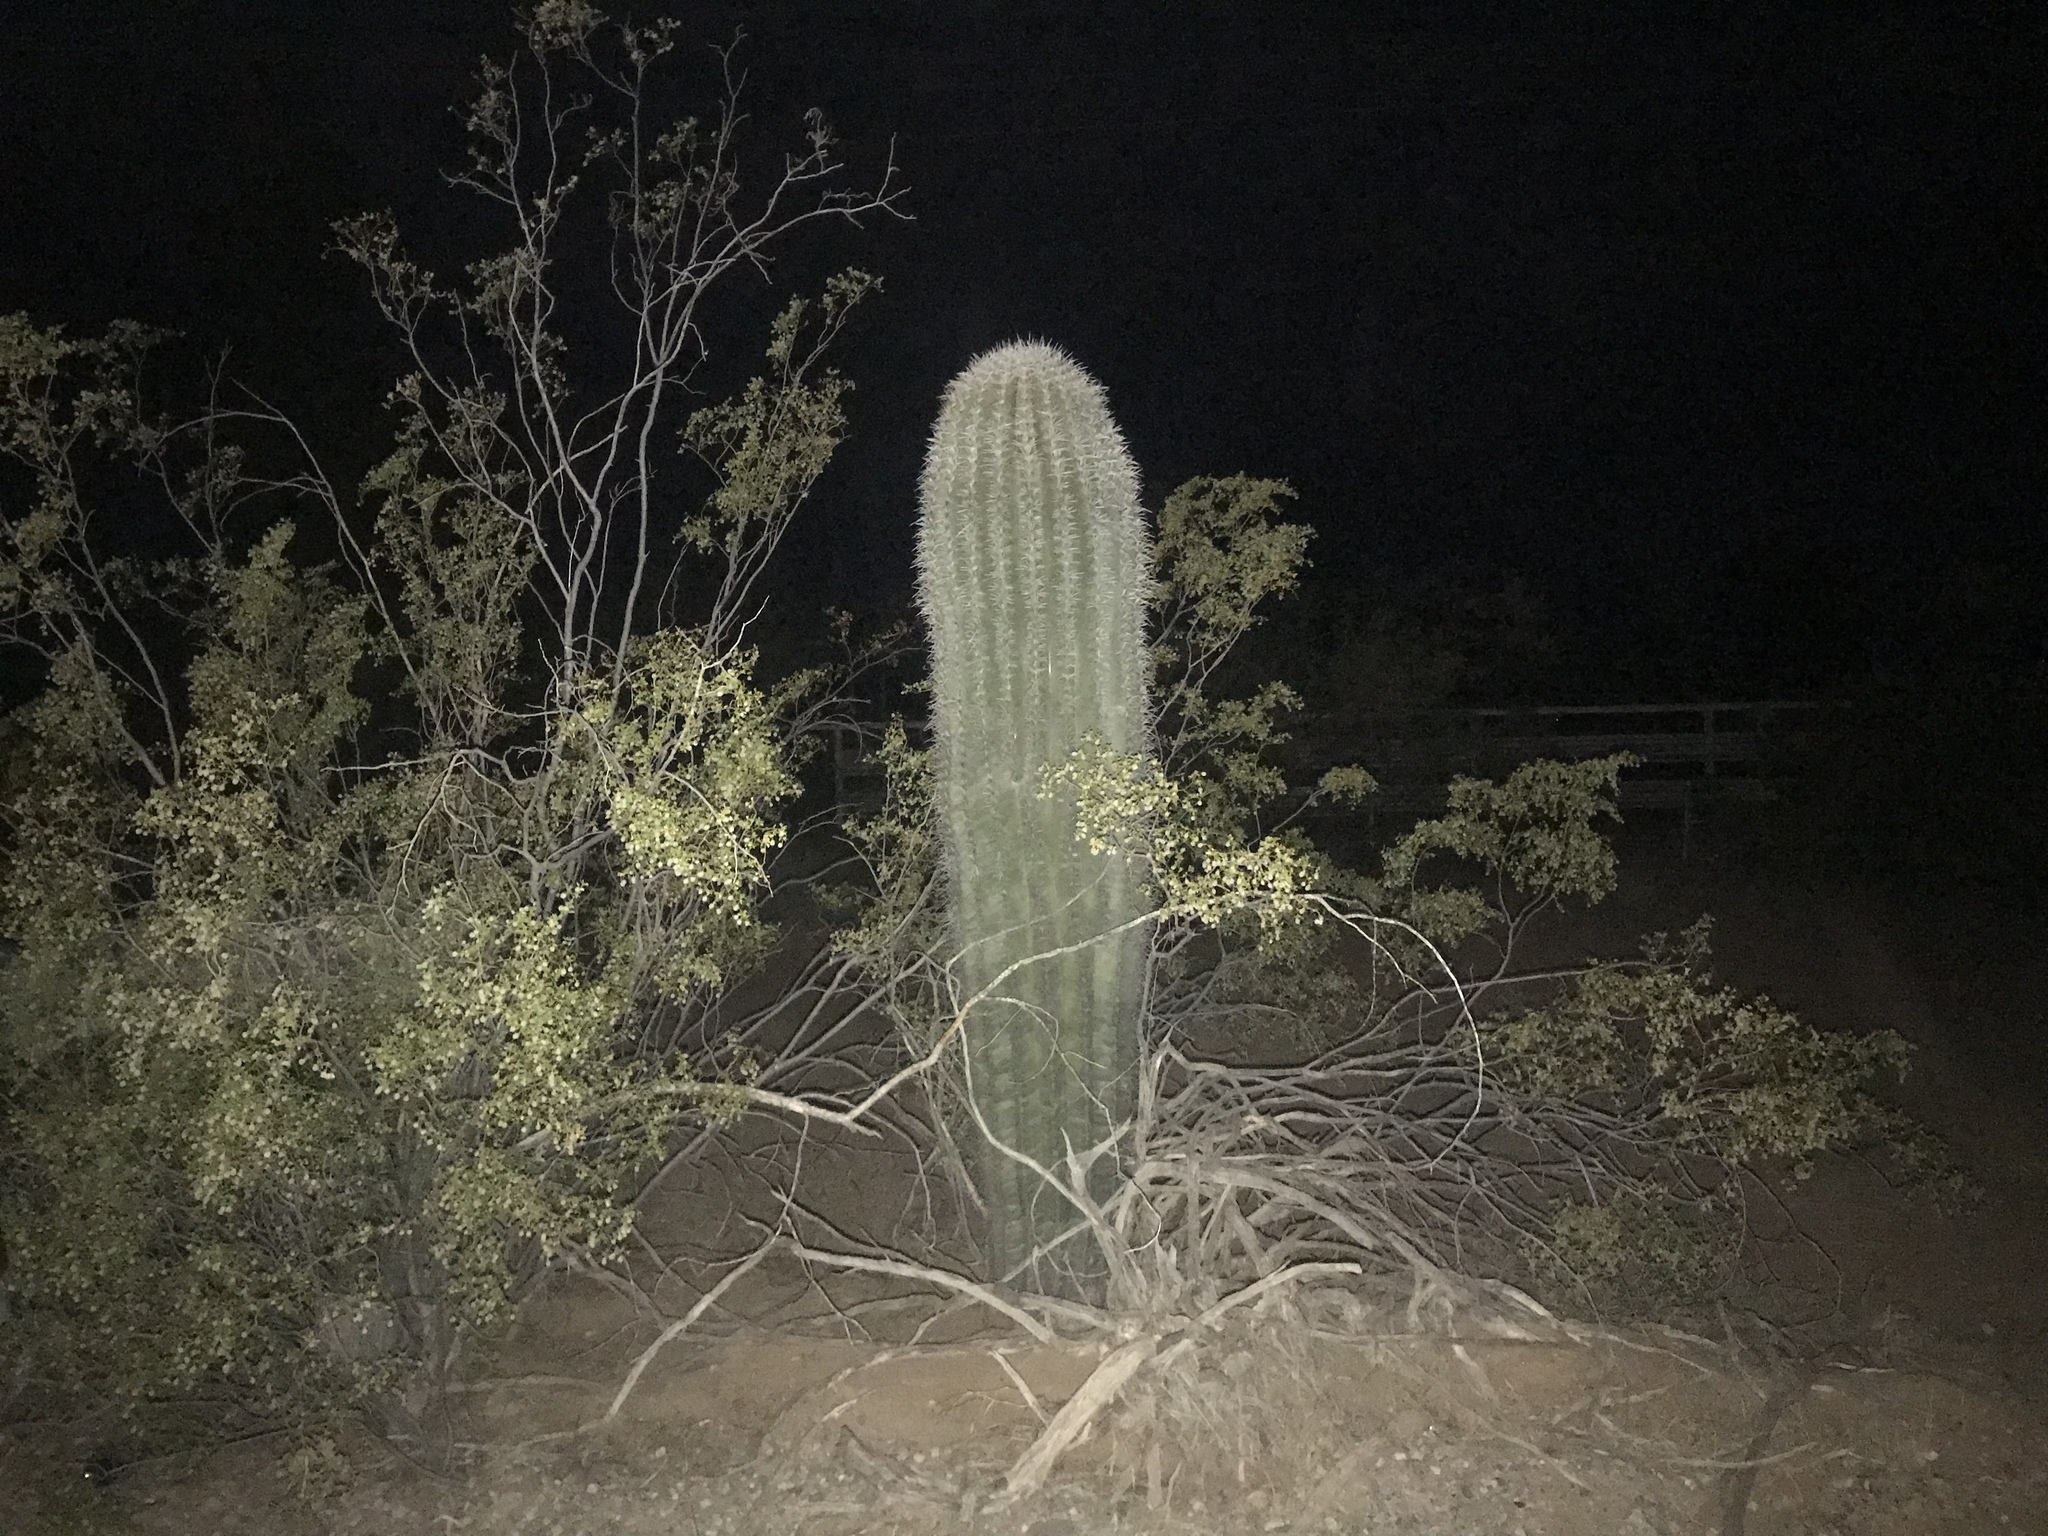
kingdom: Plantae
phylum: Tracheophyta
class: Magnoliopsida
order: Caryophyllales
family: Cactaceae
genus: Carnegiea
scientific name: Carnegiea gigantea
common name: Saguaro
